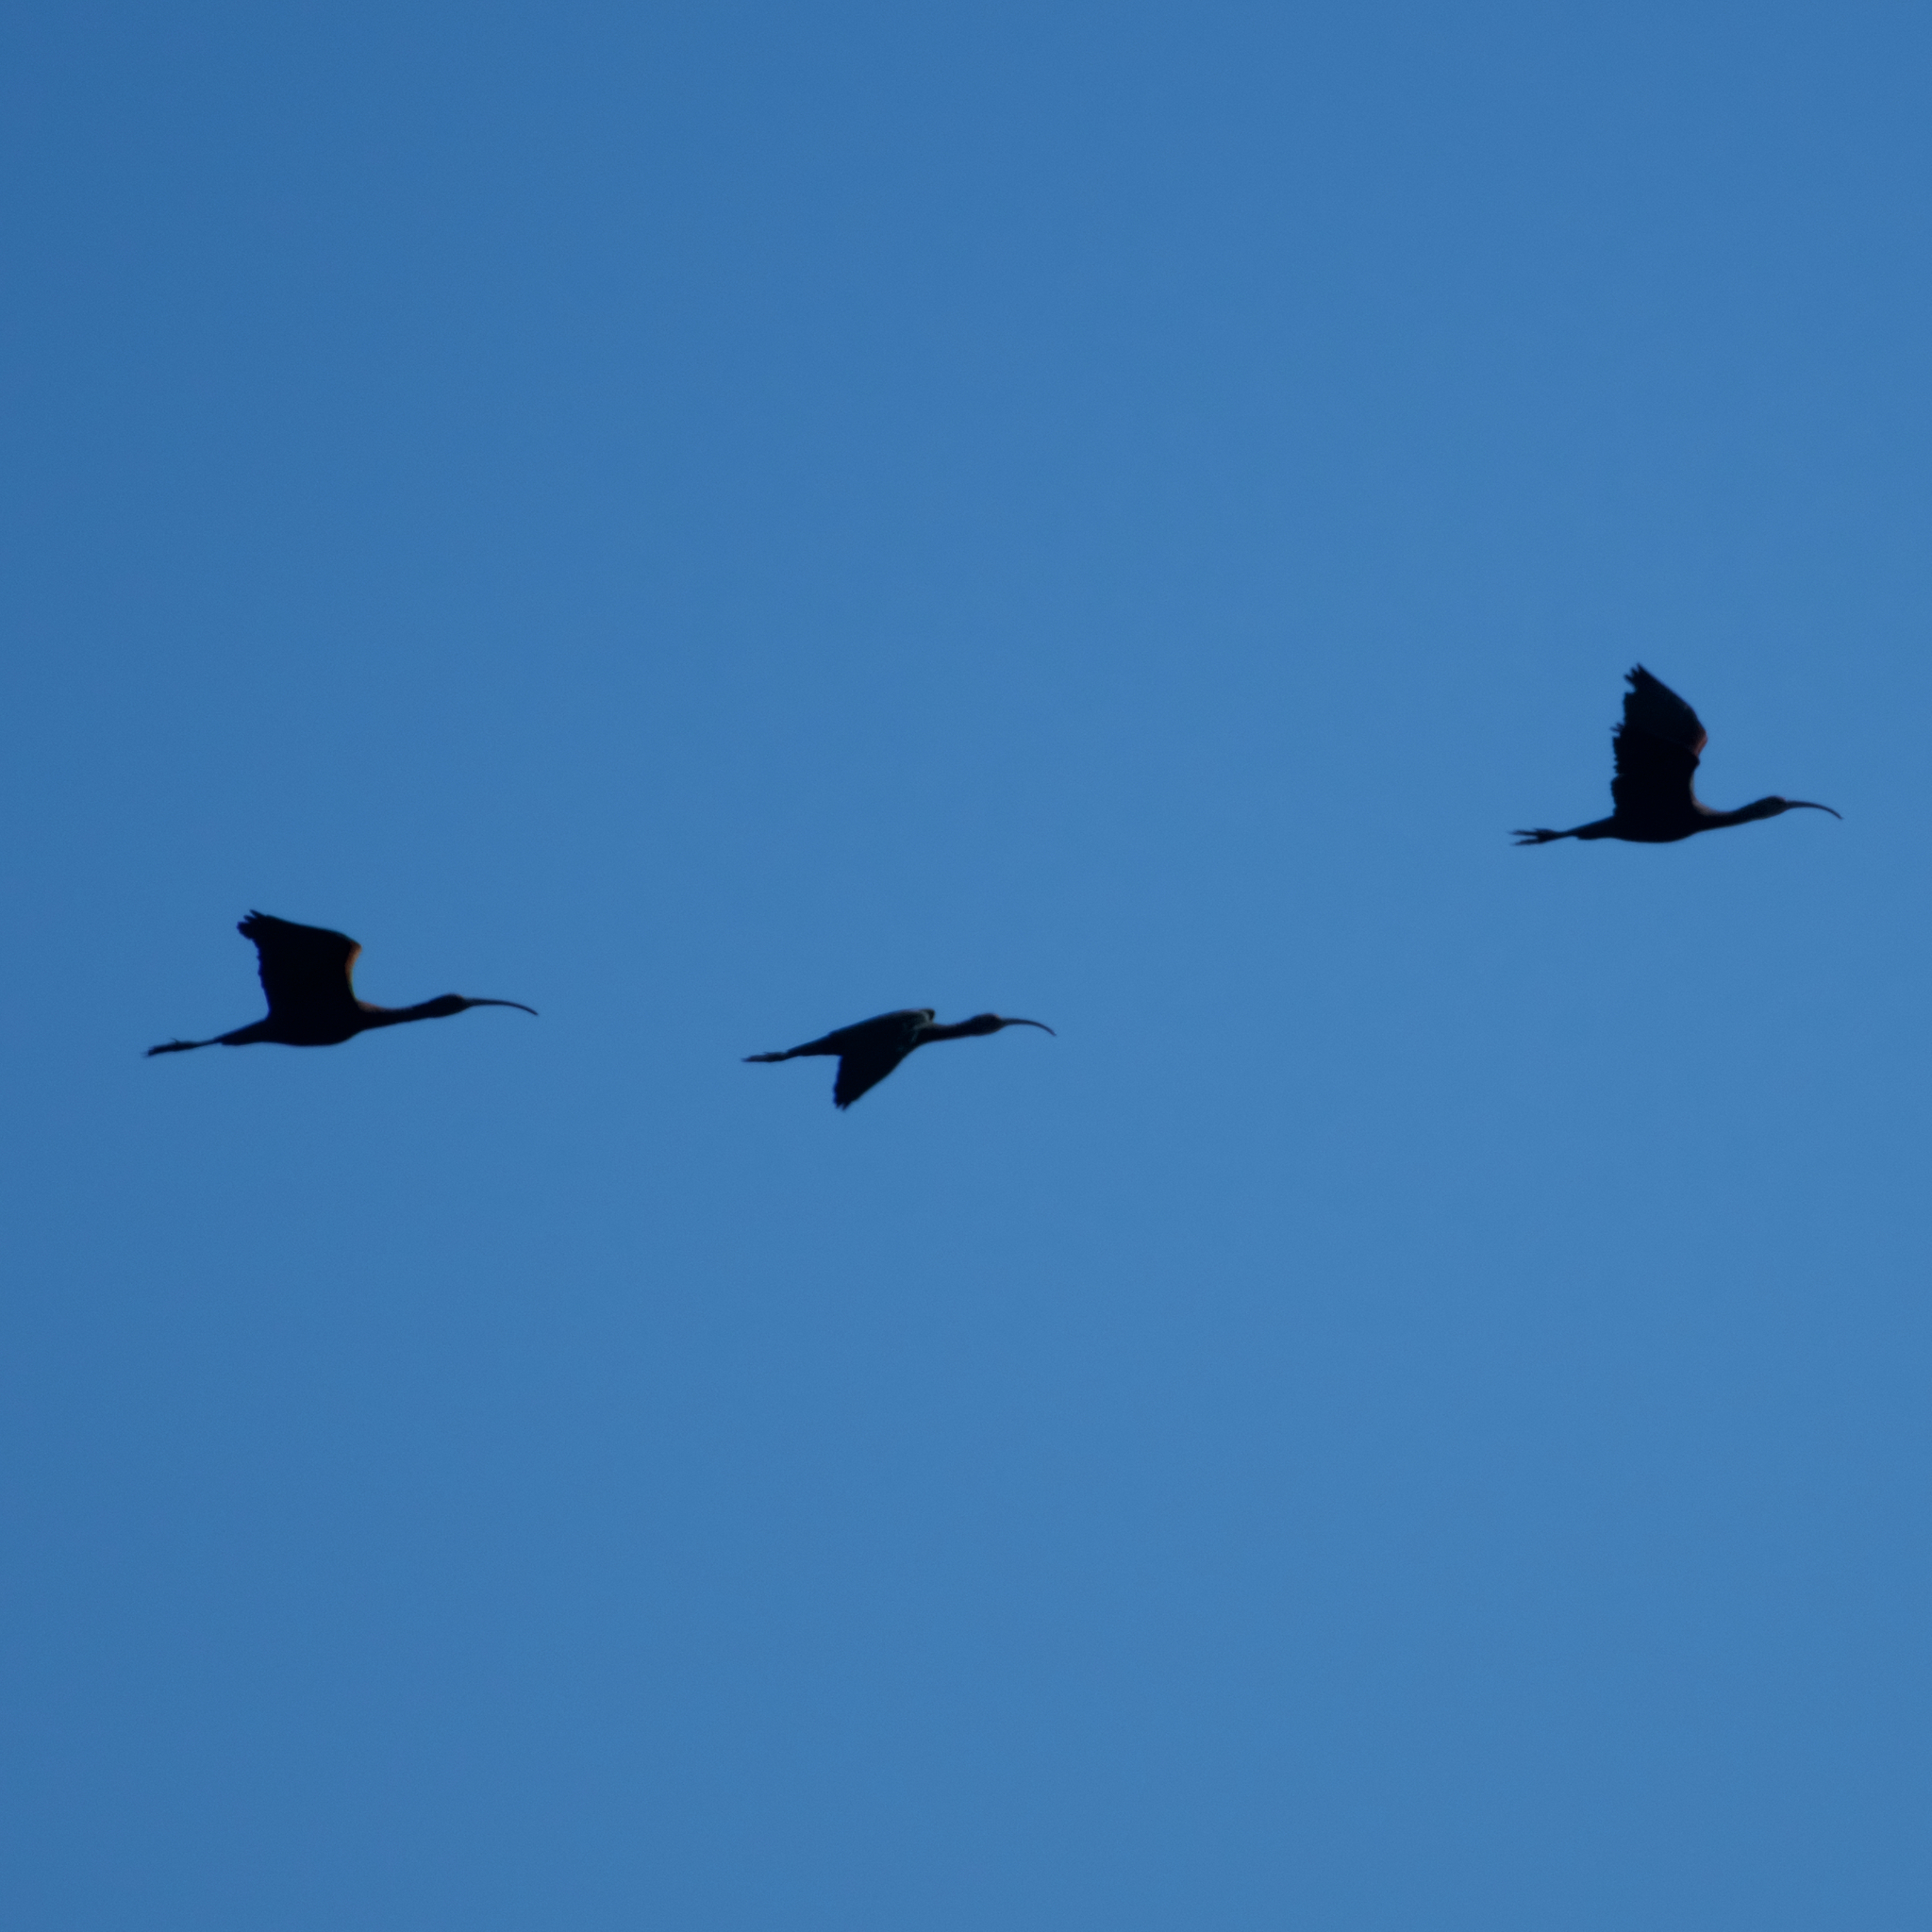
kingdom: Animalia
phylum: Chordata
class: Aves
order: Pelecaniformes
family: Threskiornithidae
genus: Plegadis
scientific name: Plegadis chihi
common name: White-faced ibis
